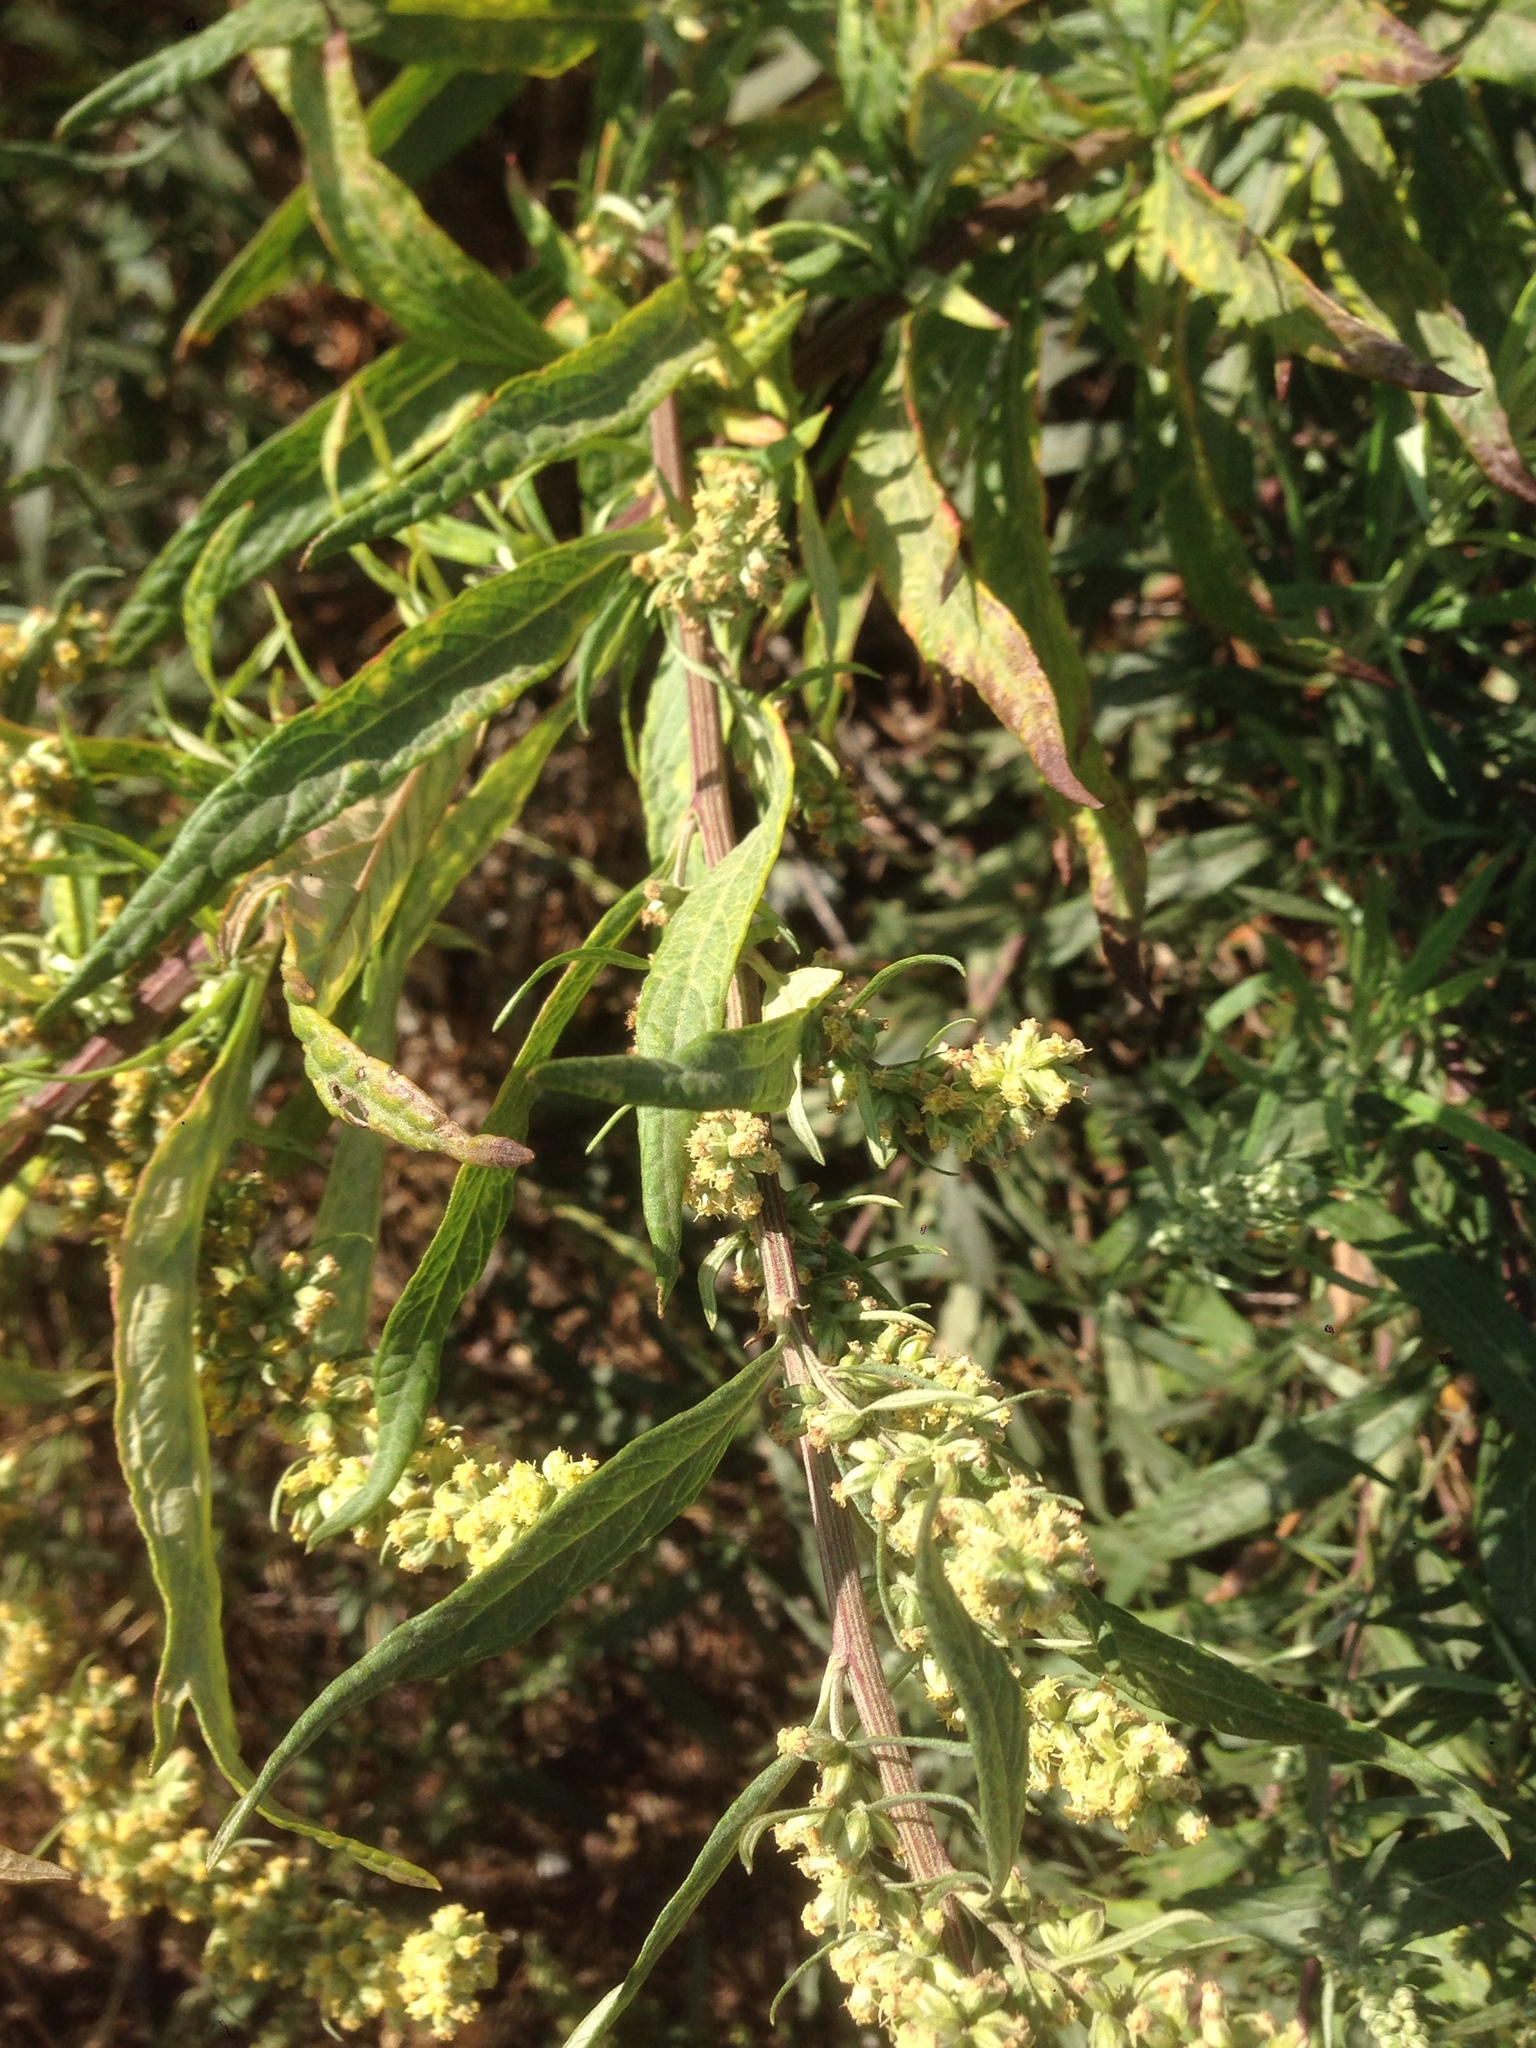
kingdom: Plantae
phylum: Tracheophyta
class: Magnoliopsida
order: Asterales
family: Asteraceae
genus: Artemisia
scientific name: Artemisia douglasiana
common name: Northwest mugwort
